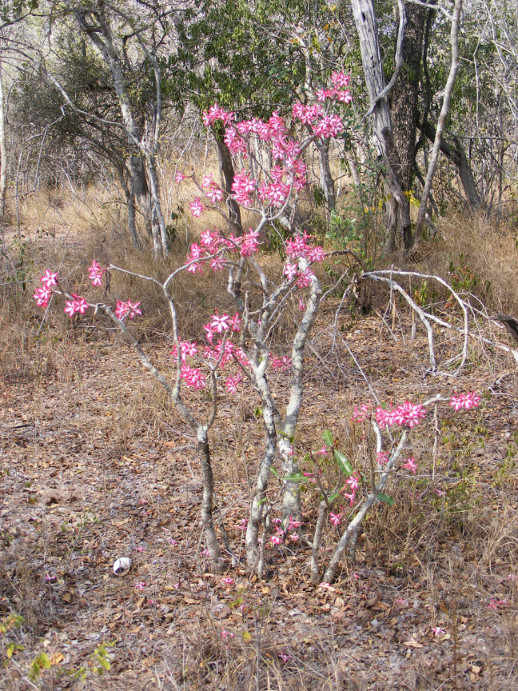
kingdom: Plantae
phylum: Tracheophyta
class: Magnoliopsida
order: Gentianales
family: Apocynaceae
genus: Adenium
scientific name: Adenium obesum
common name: Desert-rose
